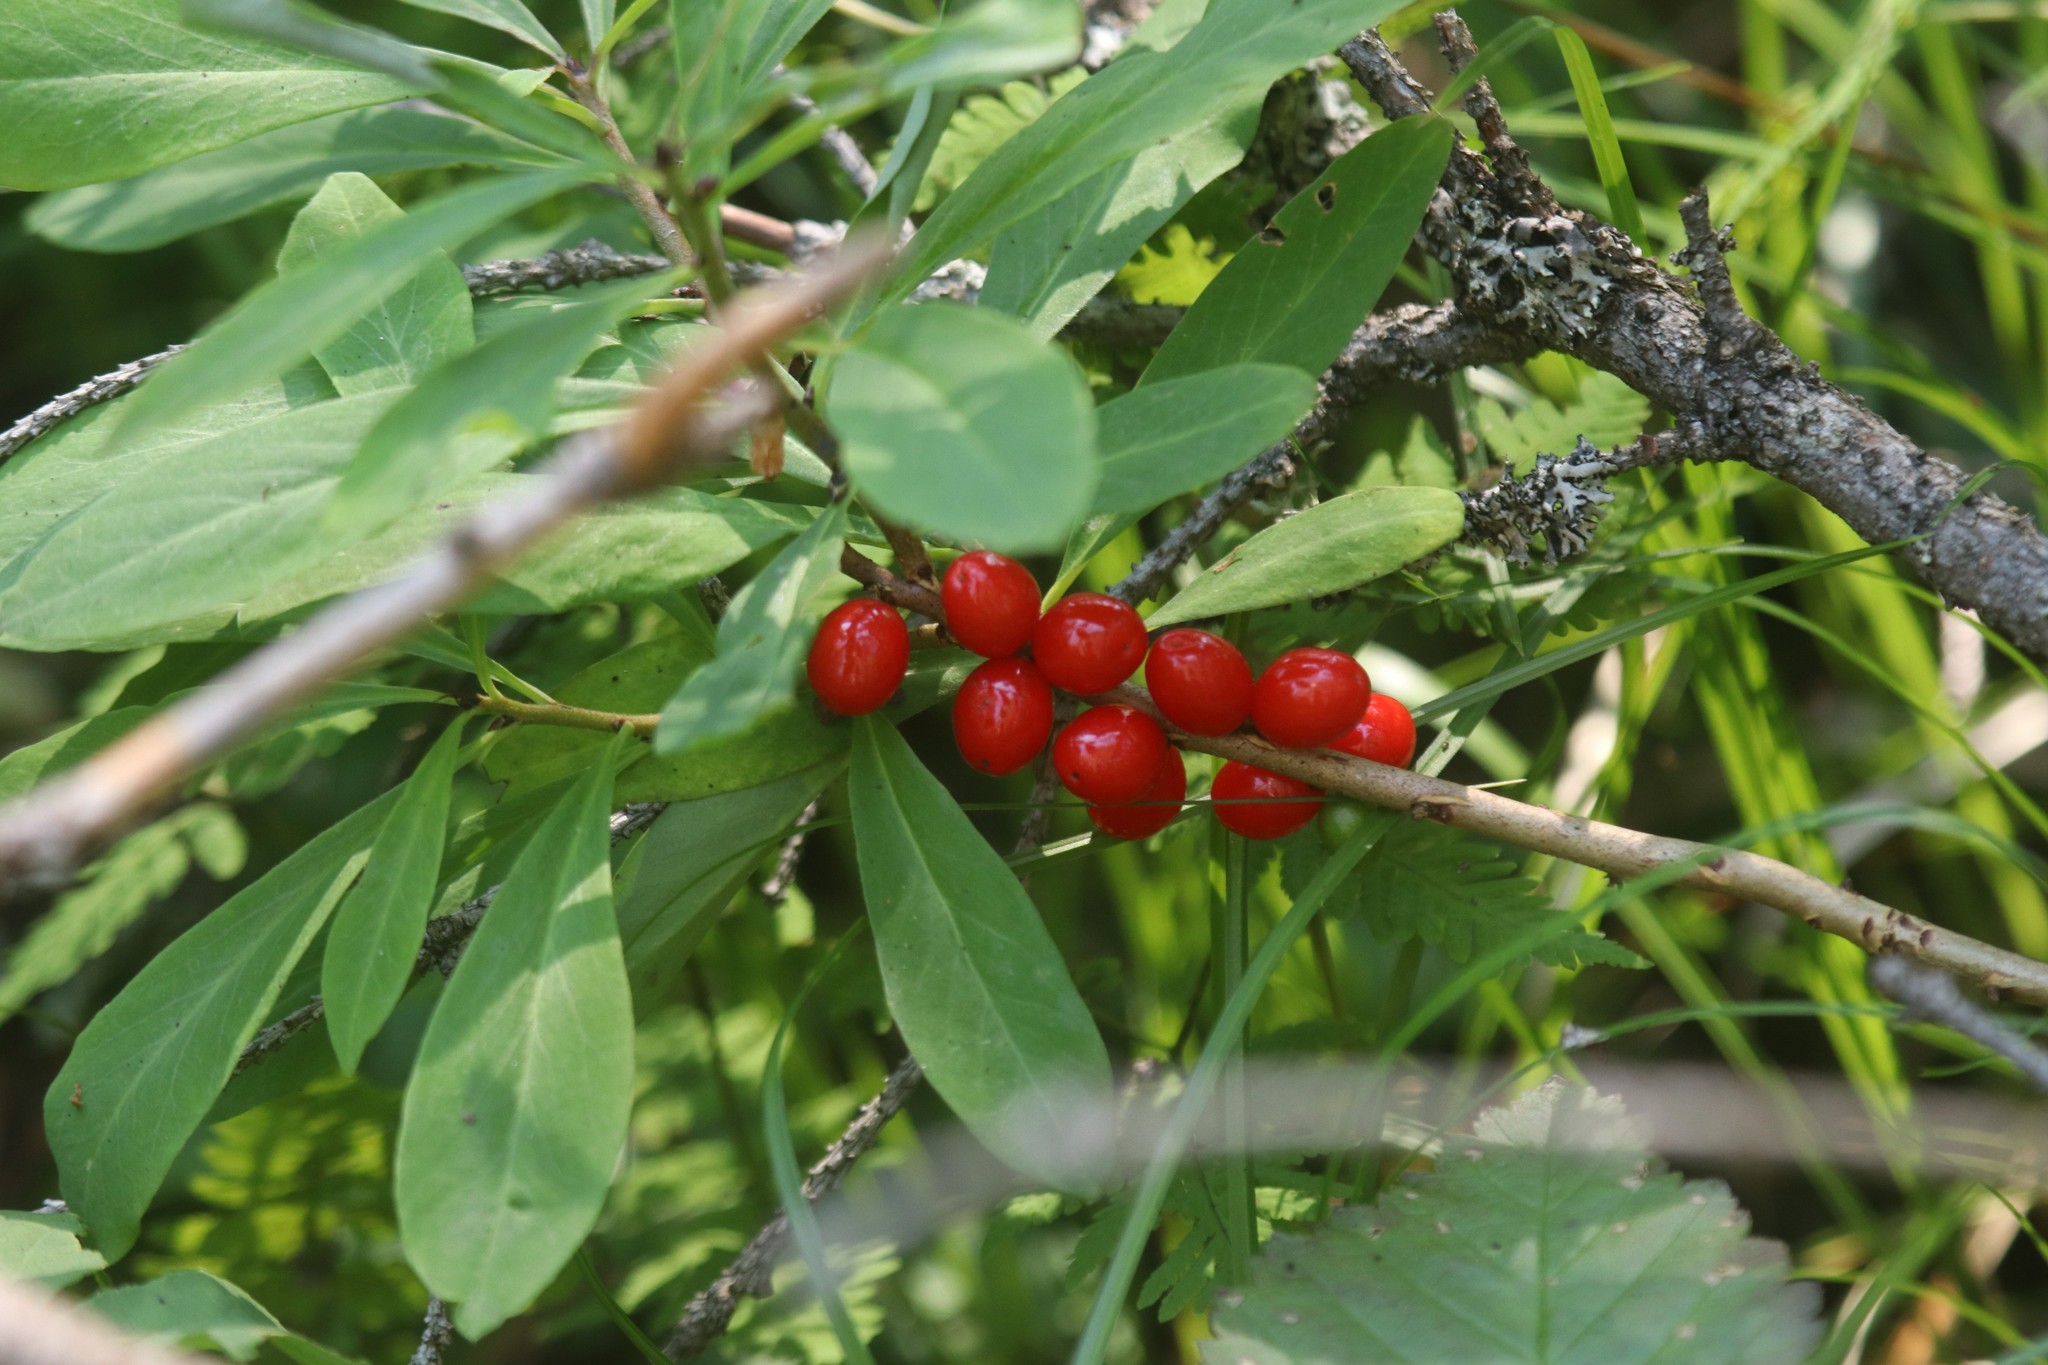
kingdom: Plantae
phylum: Tracheophyta
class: Magnoliopsida
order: Malvales
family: Thymelaeaceae
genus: Daphne
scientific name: Daphne mezereum
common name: Mezereon
